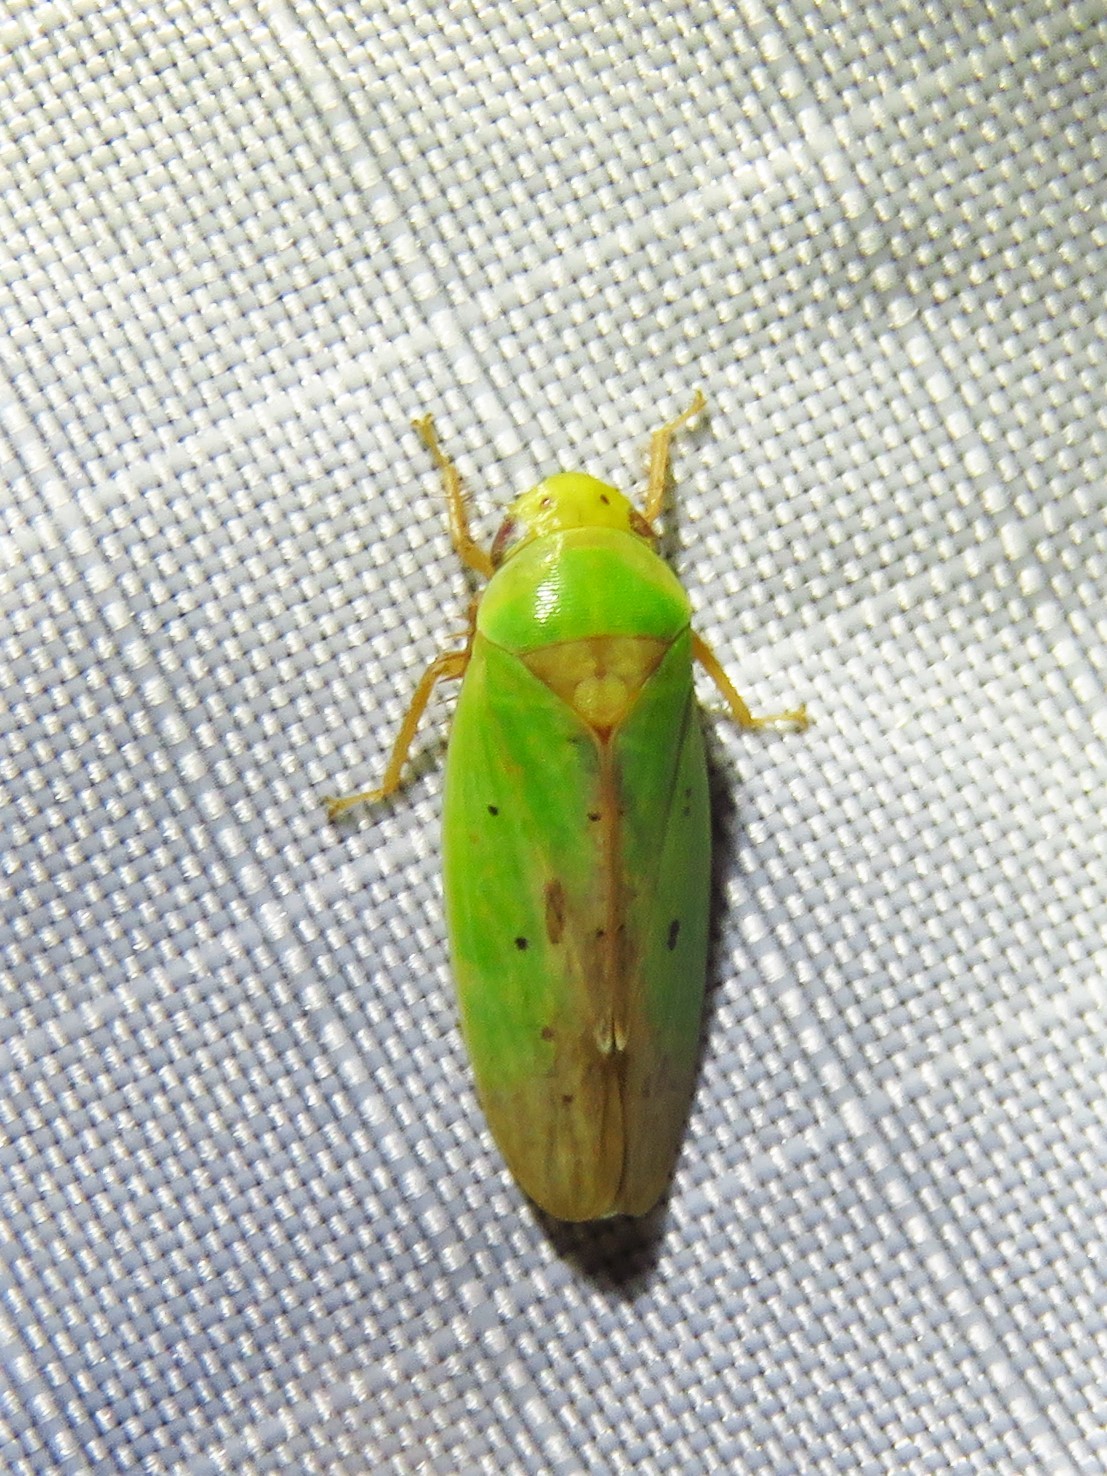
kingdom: Animalia
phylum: Arthropoda
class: Insecta
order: Hemiptera
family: Cicadellidae
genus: Ponana
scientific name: Ponana
